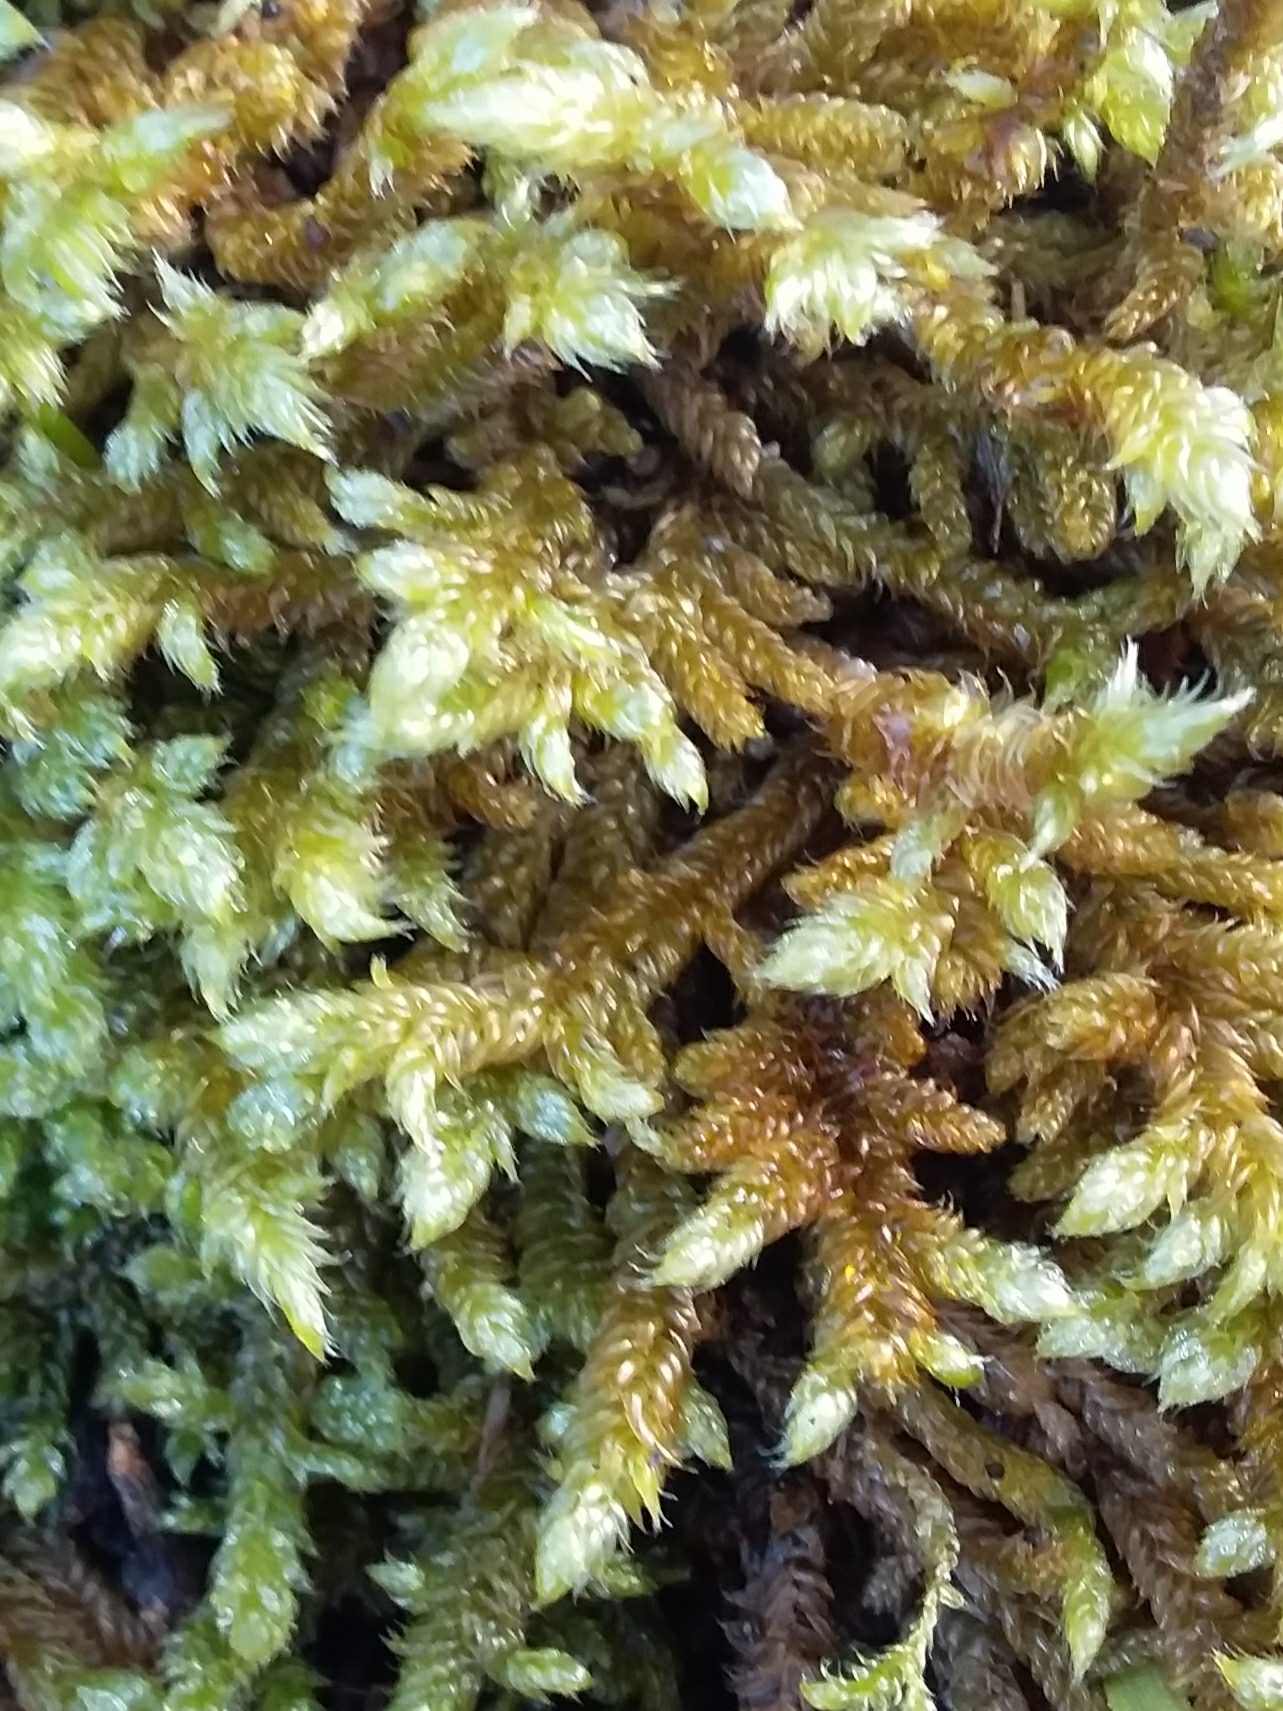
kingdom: Plantae
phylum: Bryophyta
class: Bryopsida
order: Hypnales
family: Hypnaceae
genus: Hypnum
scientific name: Hypnum cupressiforme
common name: Cypress-leaved plait-moss
